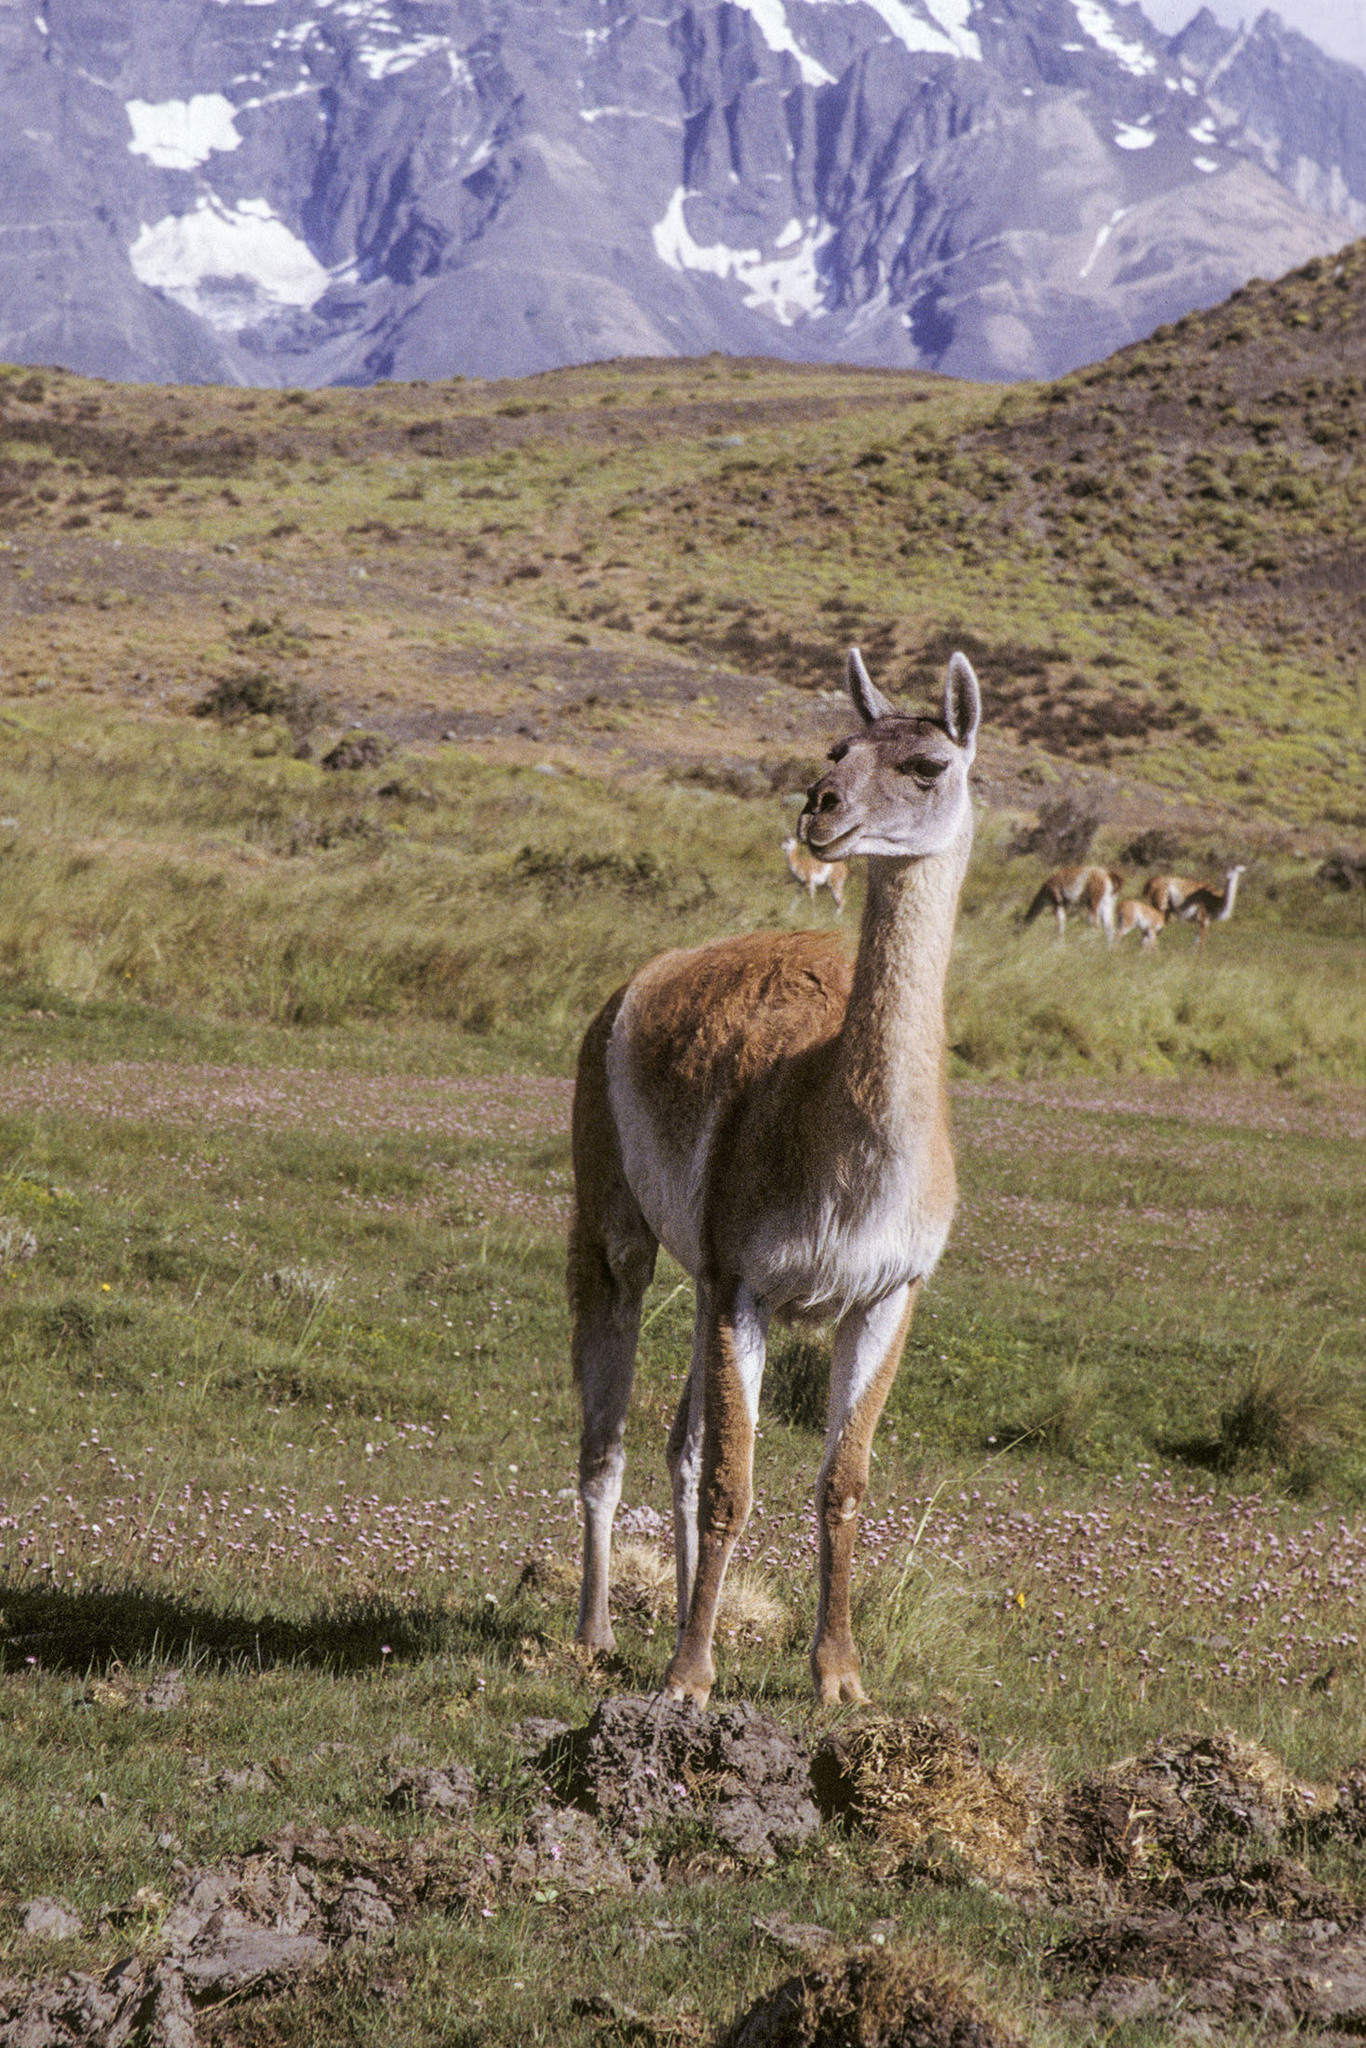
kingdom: Animalia
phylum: Chordata
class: Mammalia
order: Artiodactyla
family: Camelidae
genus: Lama
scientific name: Lama glama
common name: Llama
